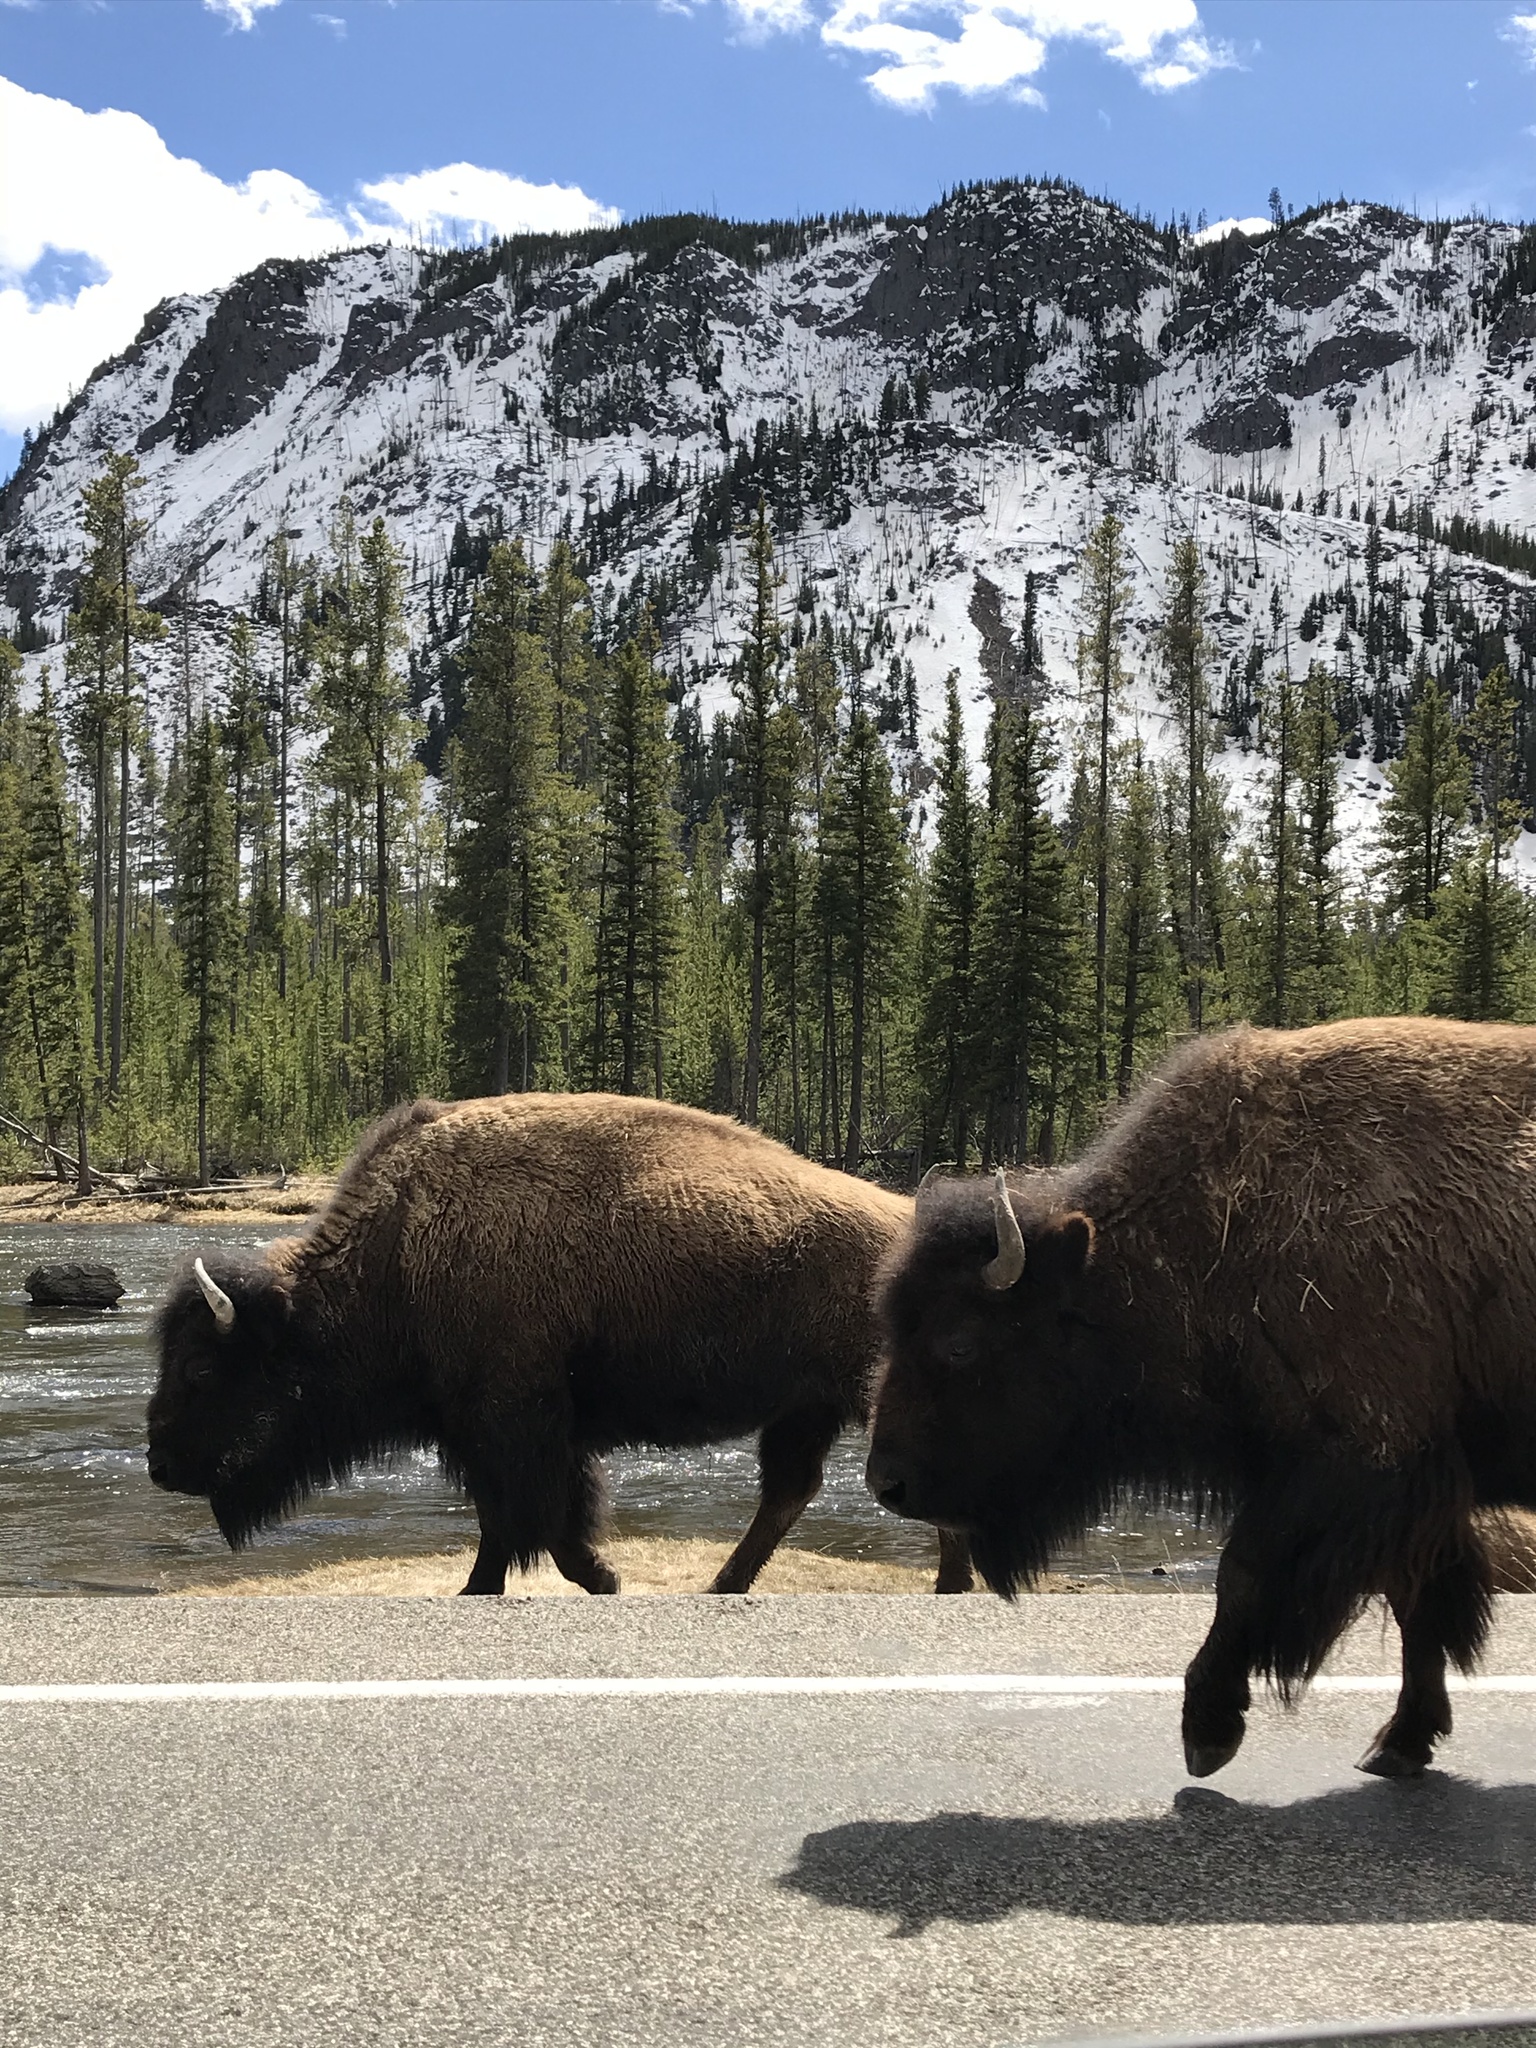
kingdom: Animalia
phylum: Chordata
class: Mammalia
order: Artiodactyla
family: Bovidae
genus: Bison
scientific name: Bison bison
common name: American bison
